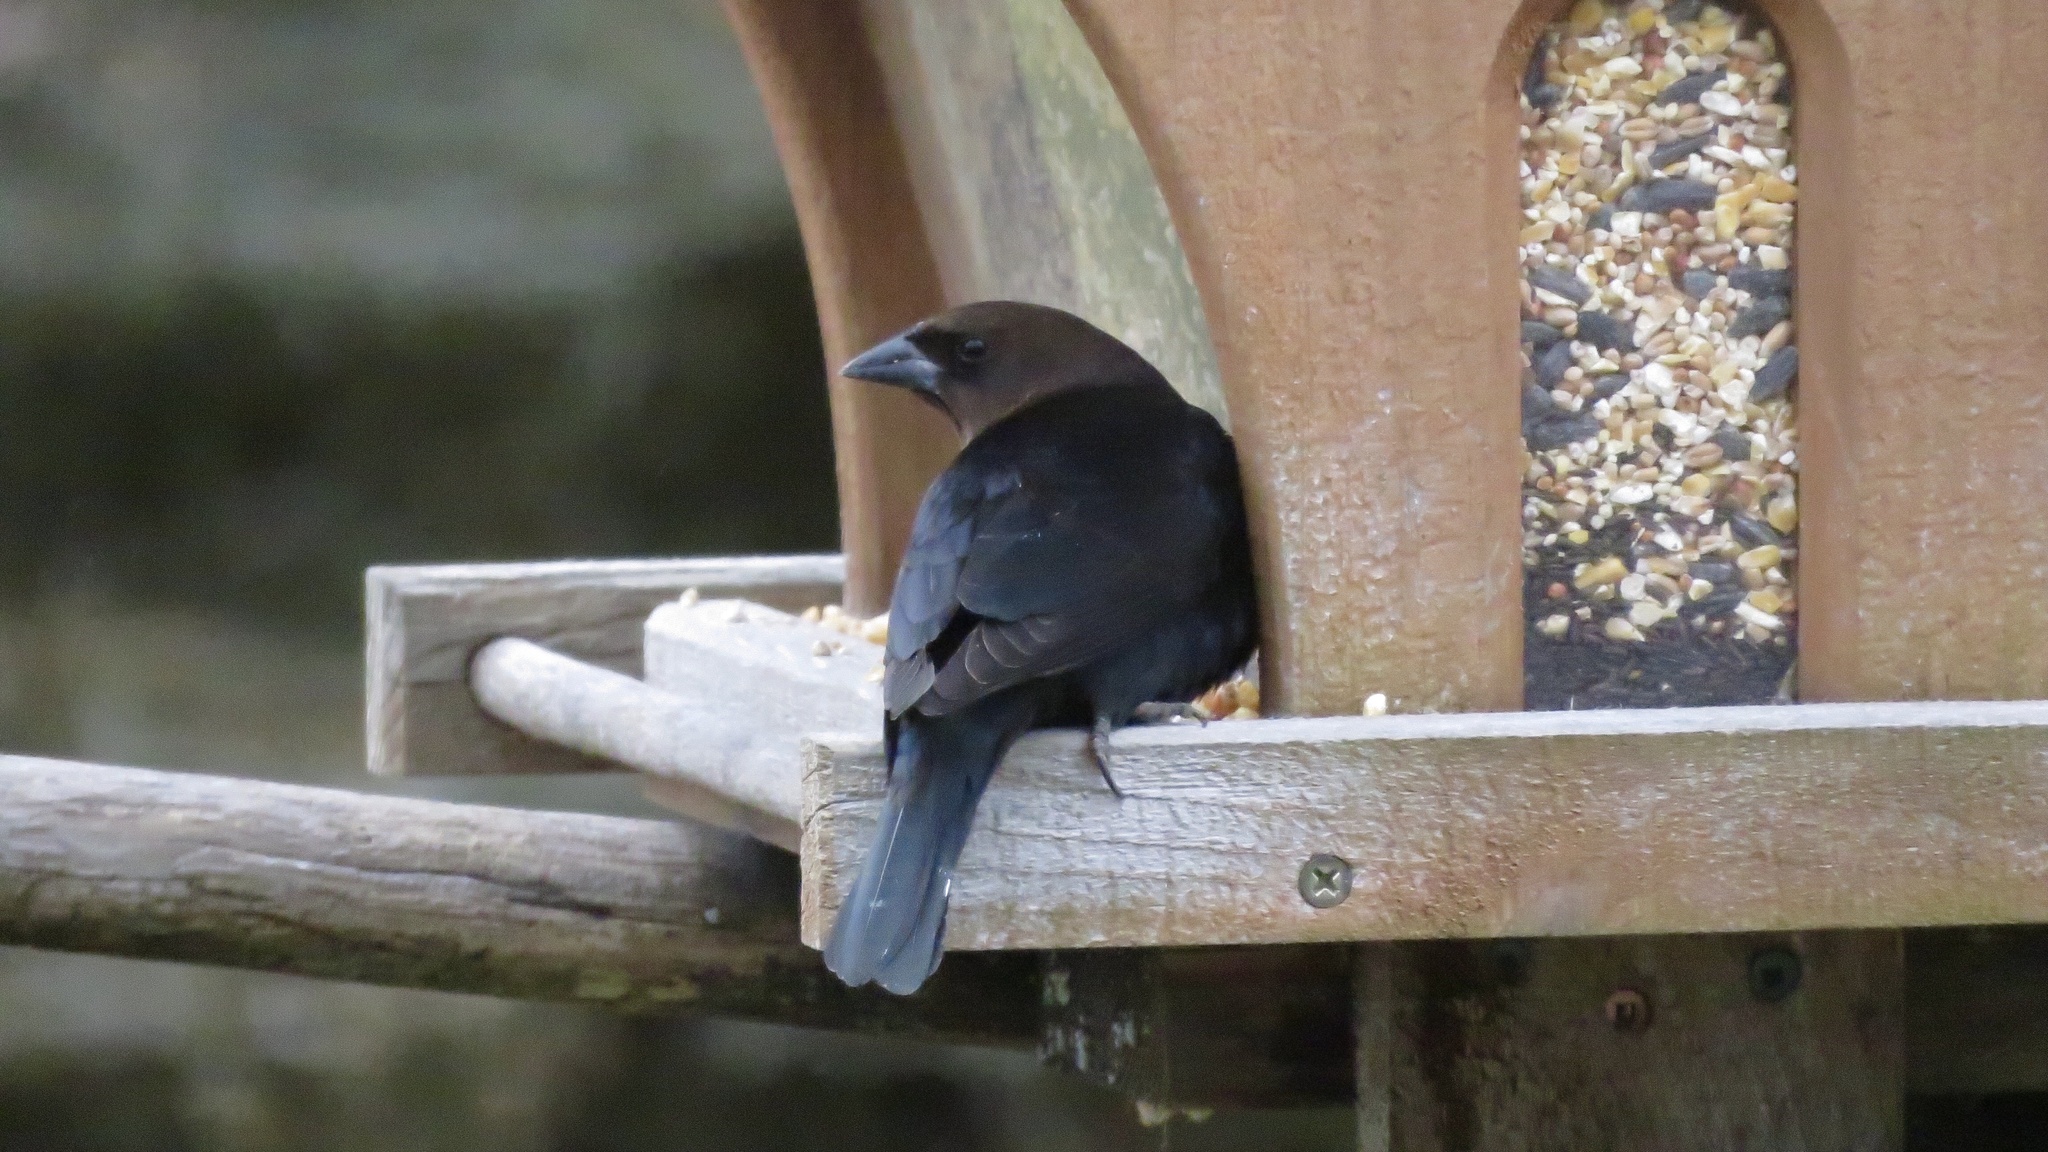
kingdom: Animalia
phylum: Chordata
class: Aves
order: Passeriformes
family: Icteridae
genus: Molothrus
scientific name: Molothrus ater
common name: Brown-headed cowbird
